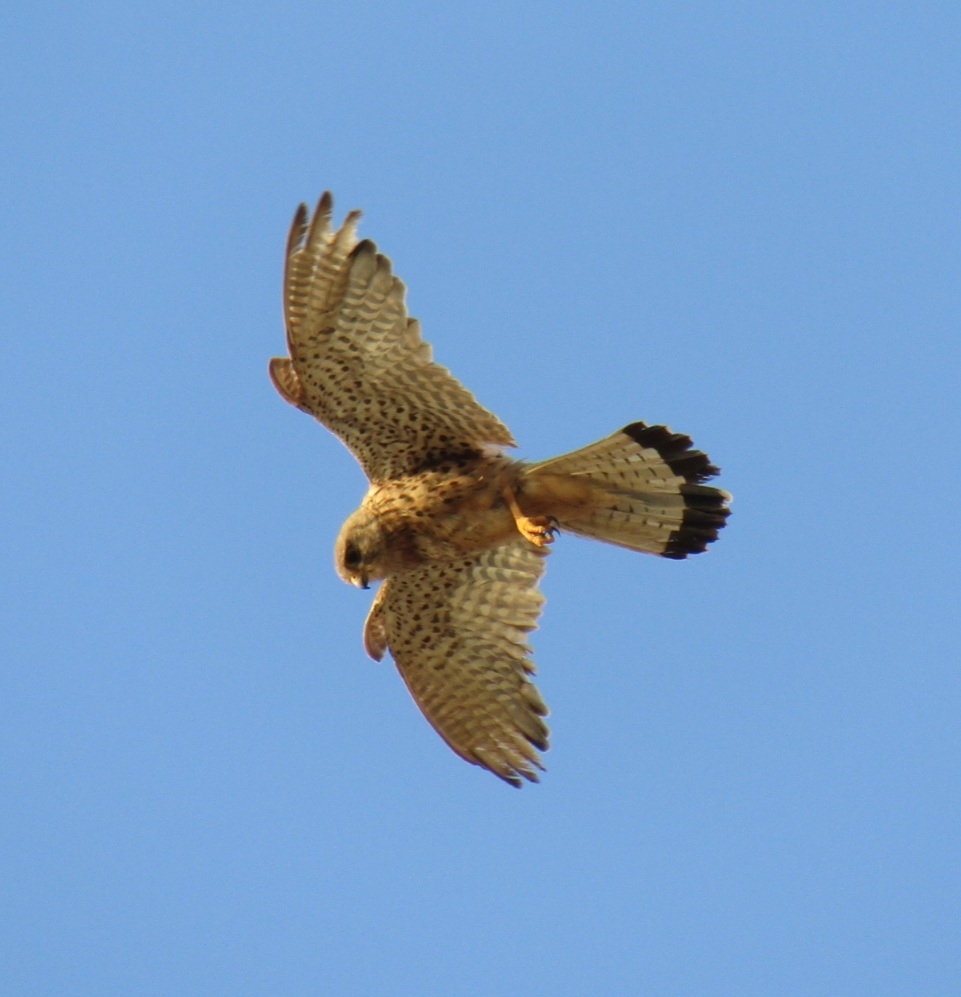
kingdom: Animalia
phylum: Chordata
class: Aves
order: Falconiformes
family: Falconidae
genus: Falco
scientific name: Falco naumanni
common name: Lesser kestrel
